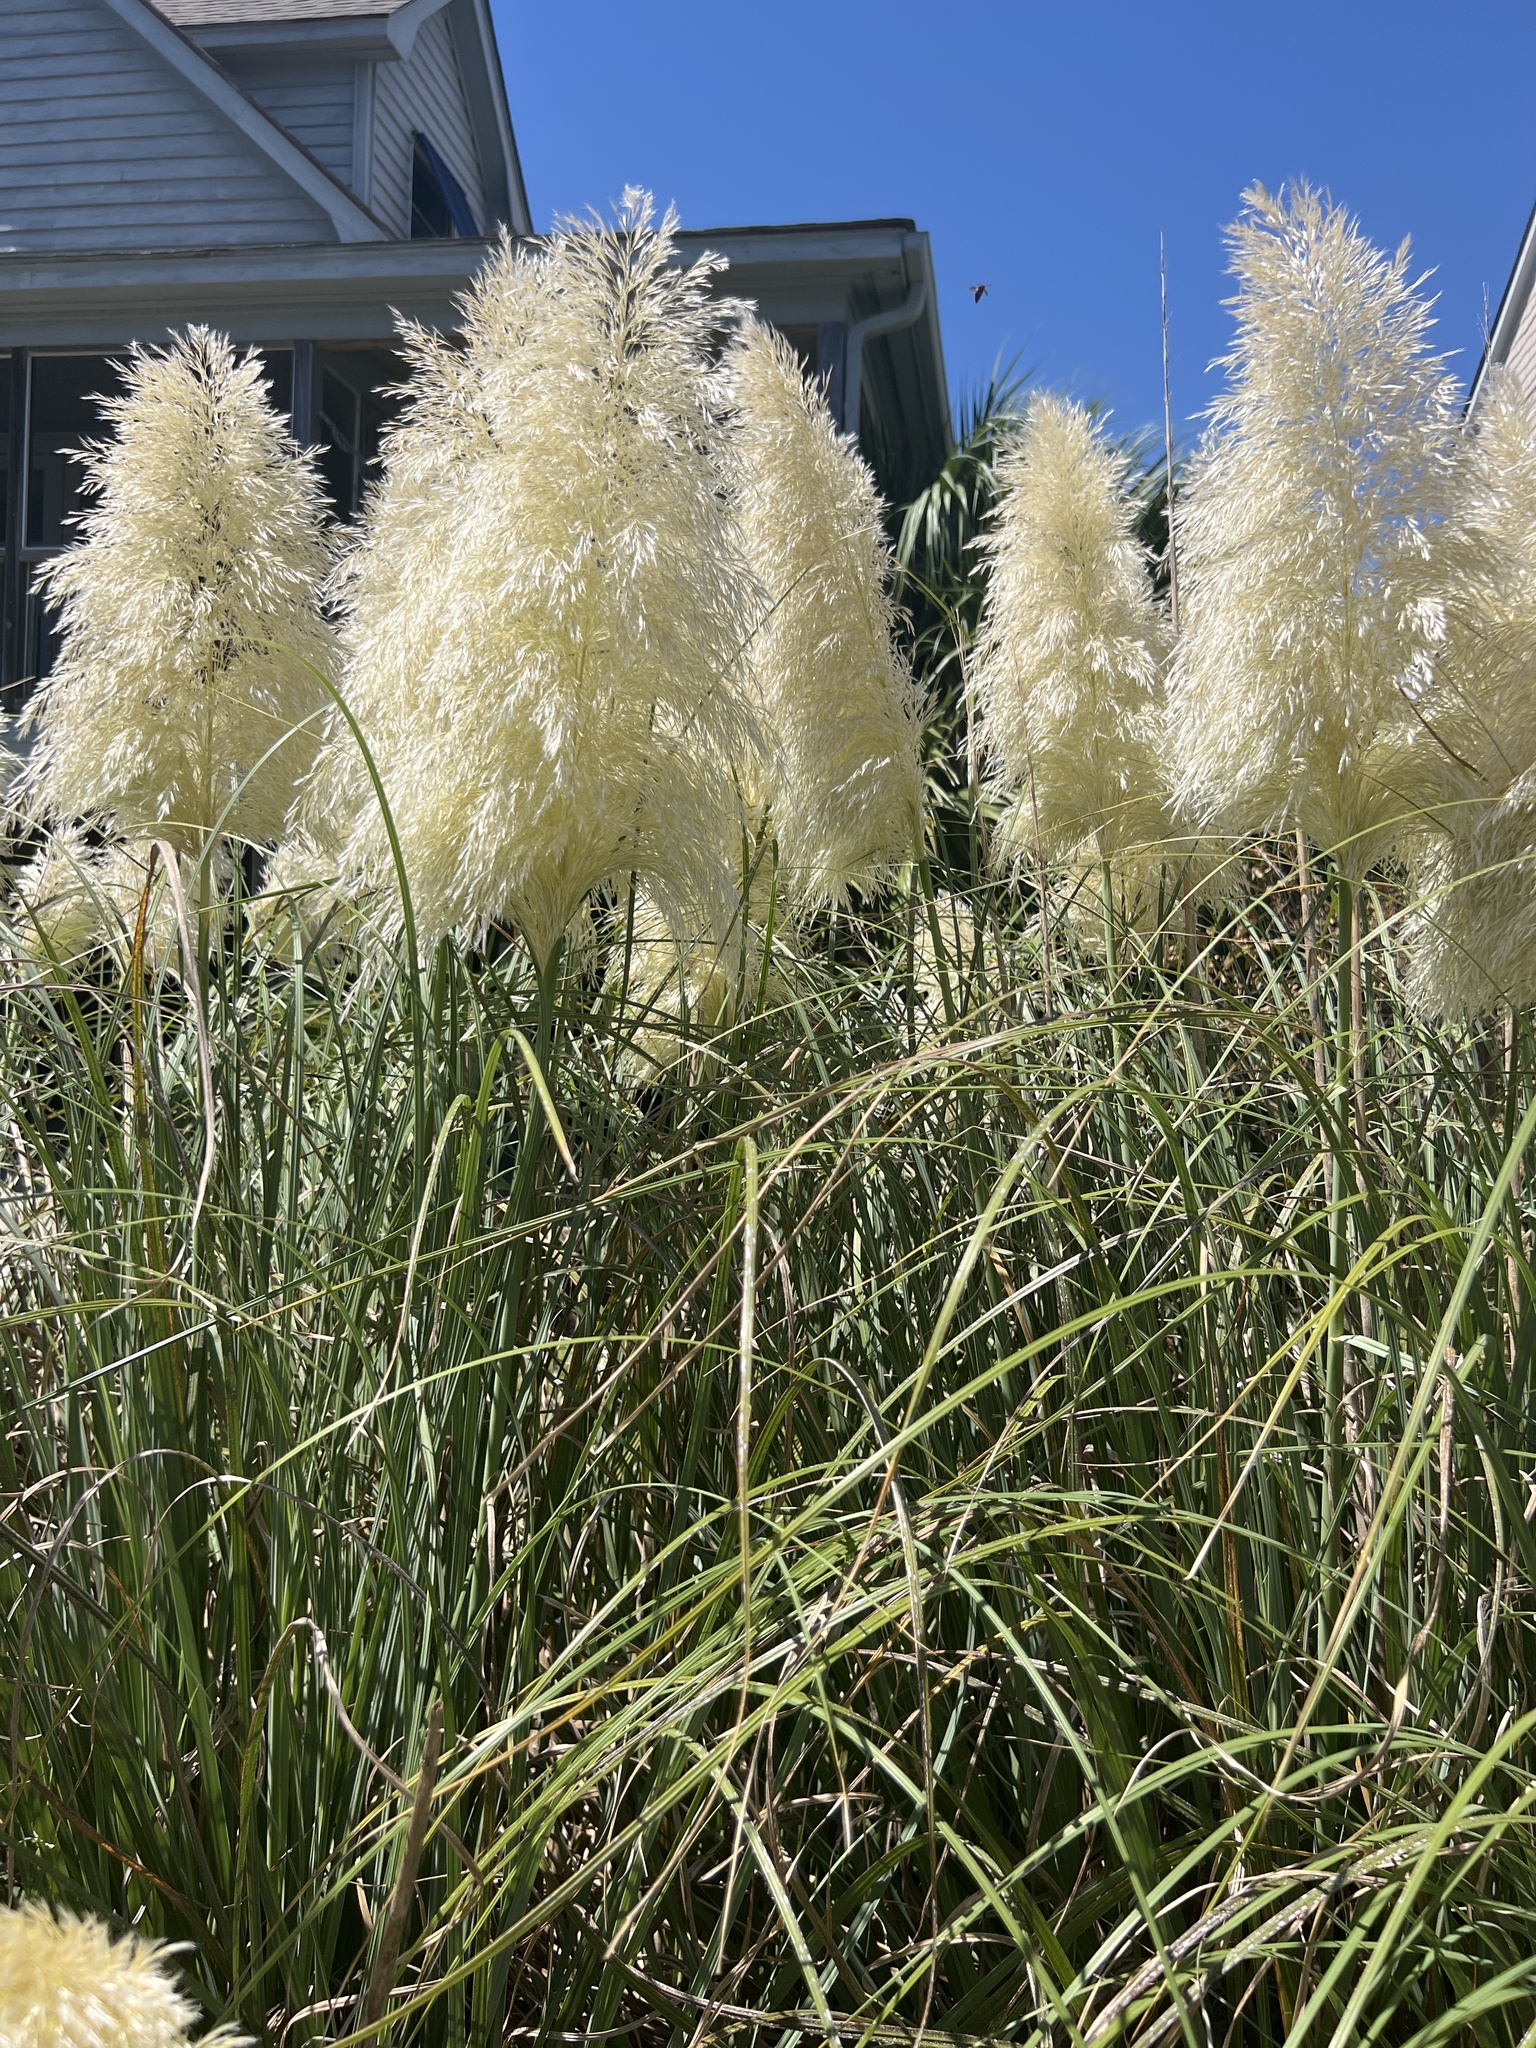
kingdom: Plantae
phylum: Tracheophyta
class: Liliopsida
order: Poales
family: Poaceae
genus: Cortaderia
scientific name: Cortaderia selloana
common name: Uruguayan pampas grass
